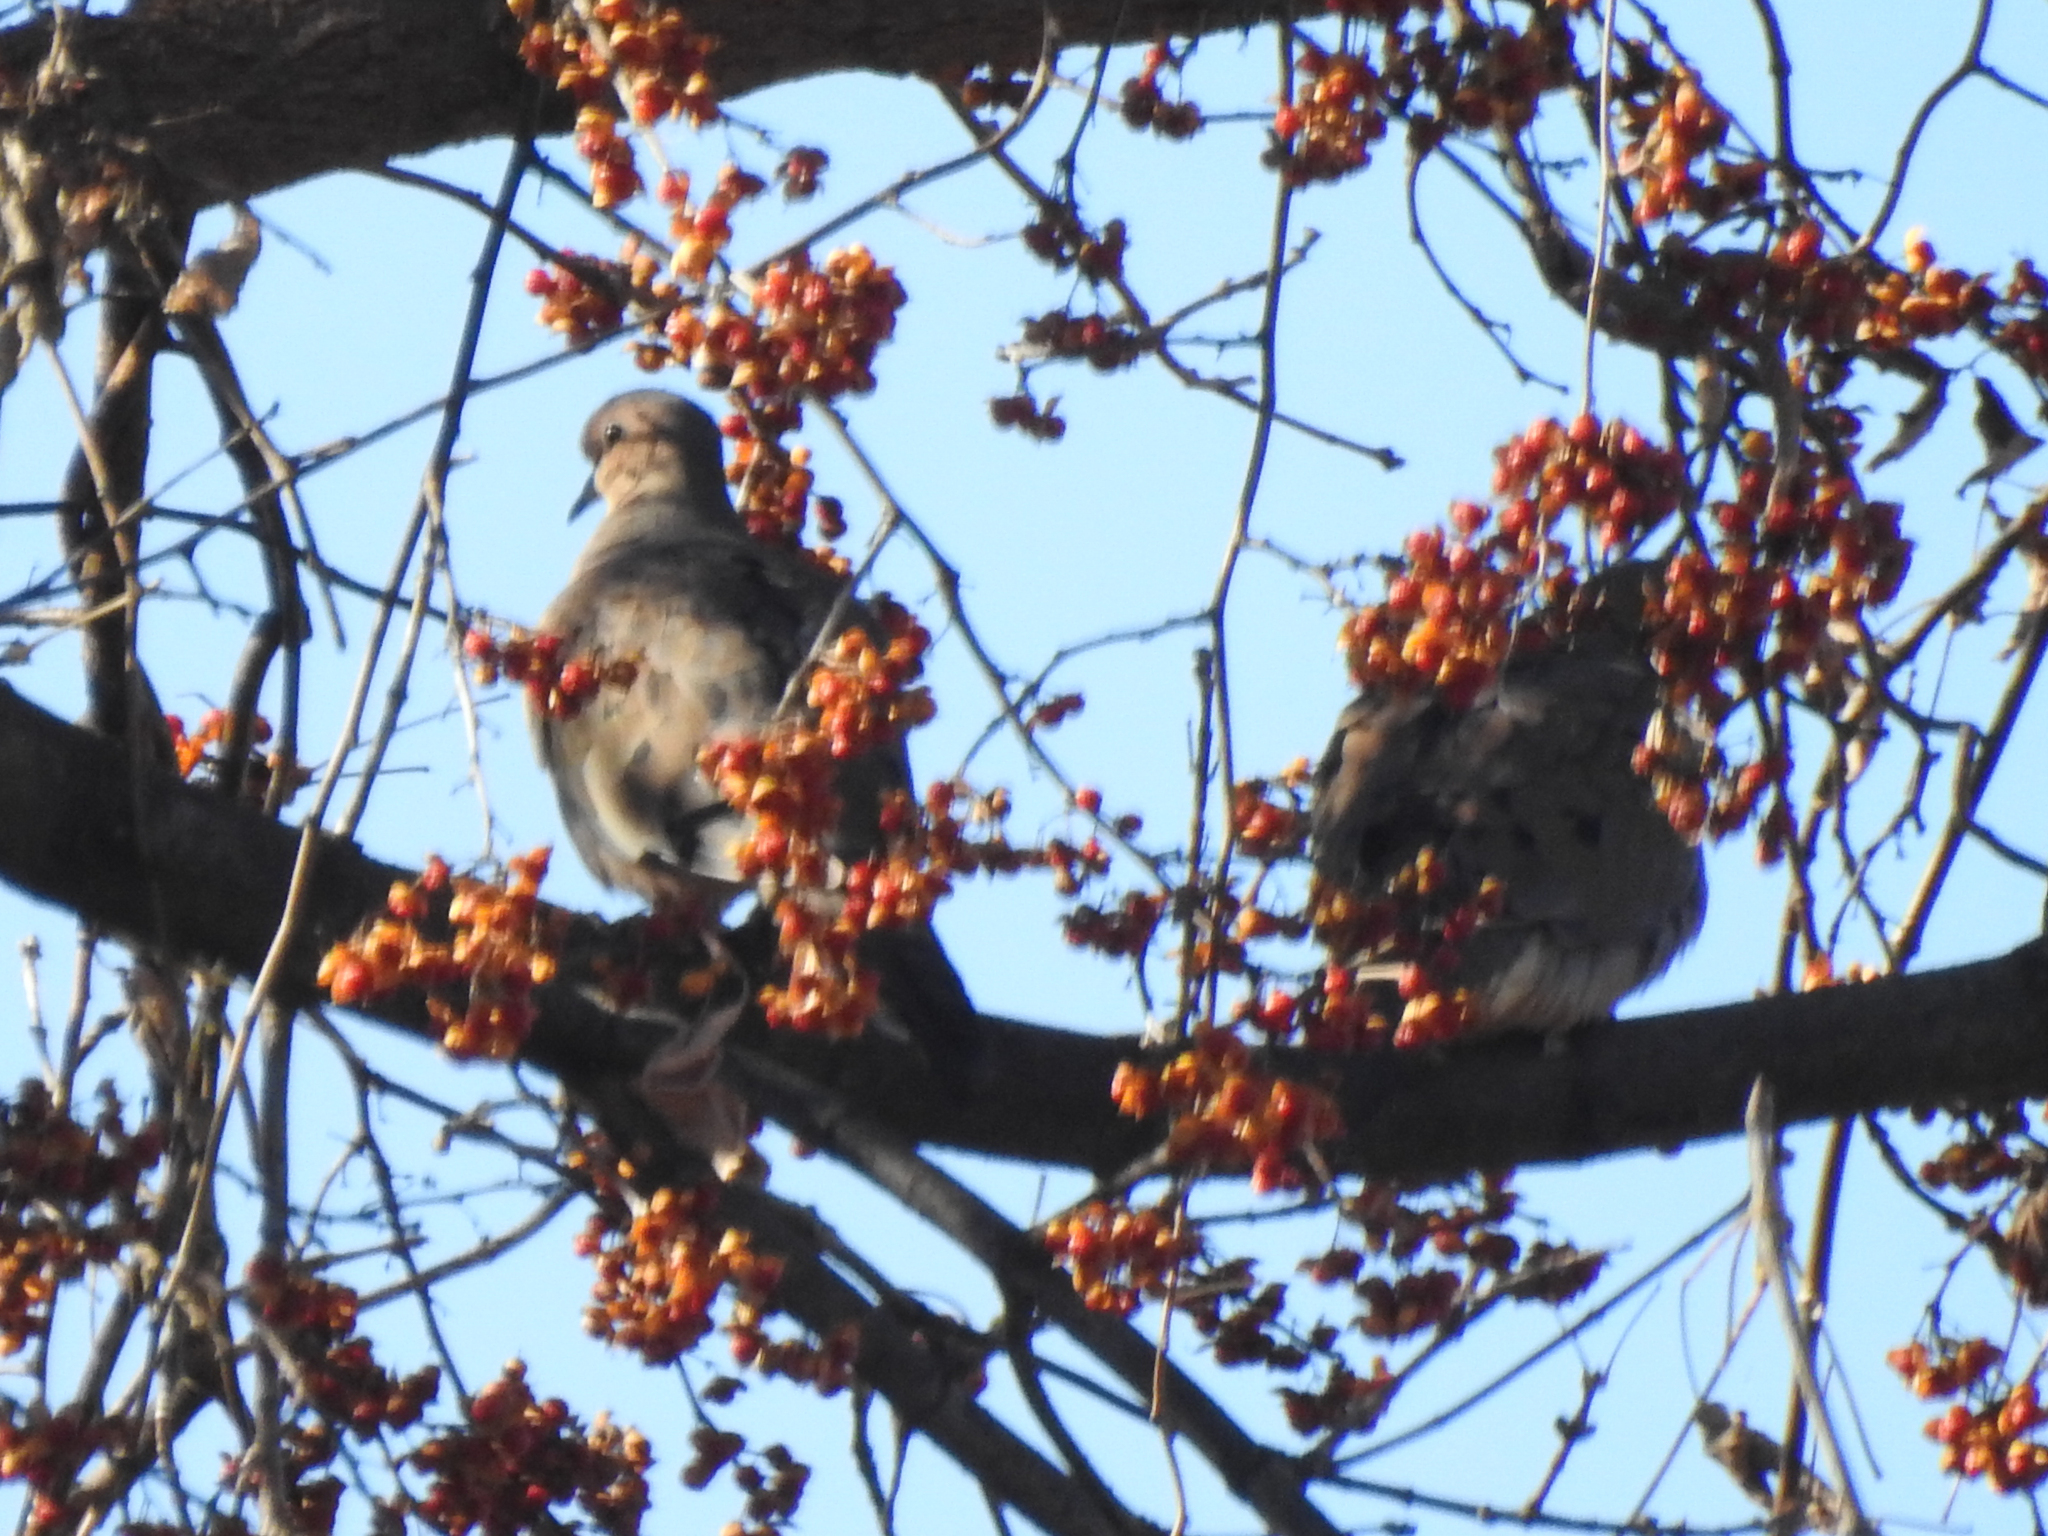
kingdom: Animalia
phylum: Chordata
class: Aves
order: Columbiformes
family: Columbidae
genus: Zenaida
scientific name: Zenaida macroura
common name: Mourning dove
